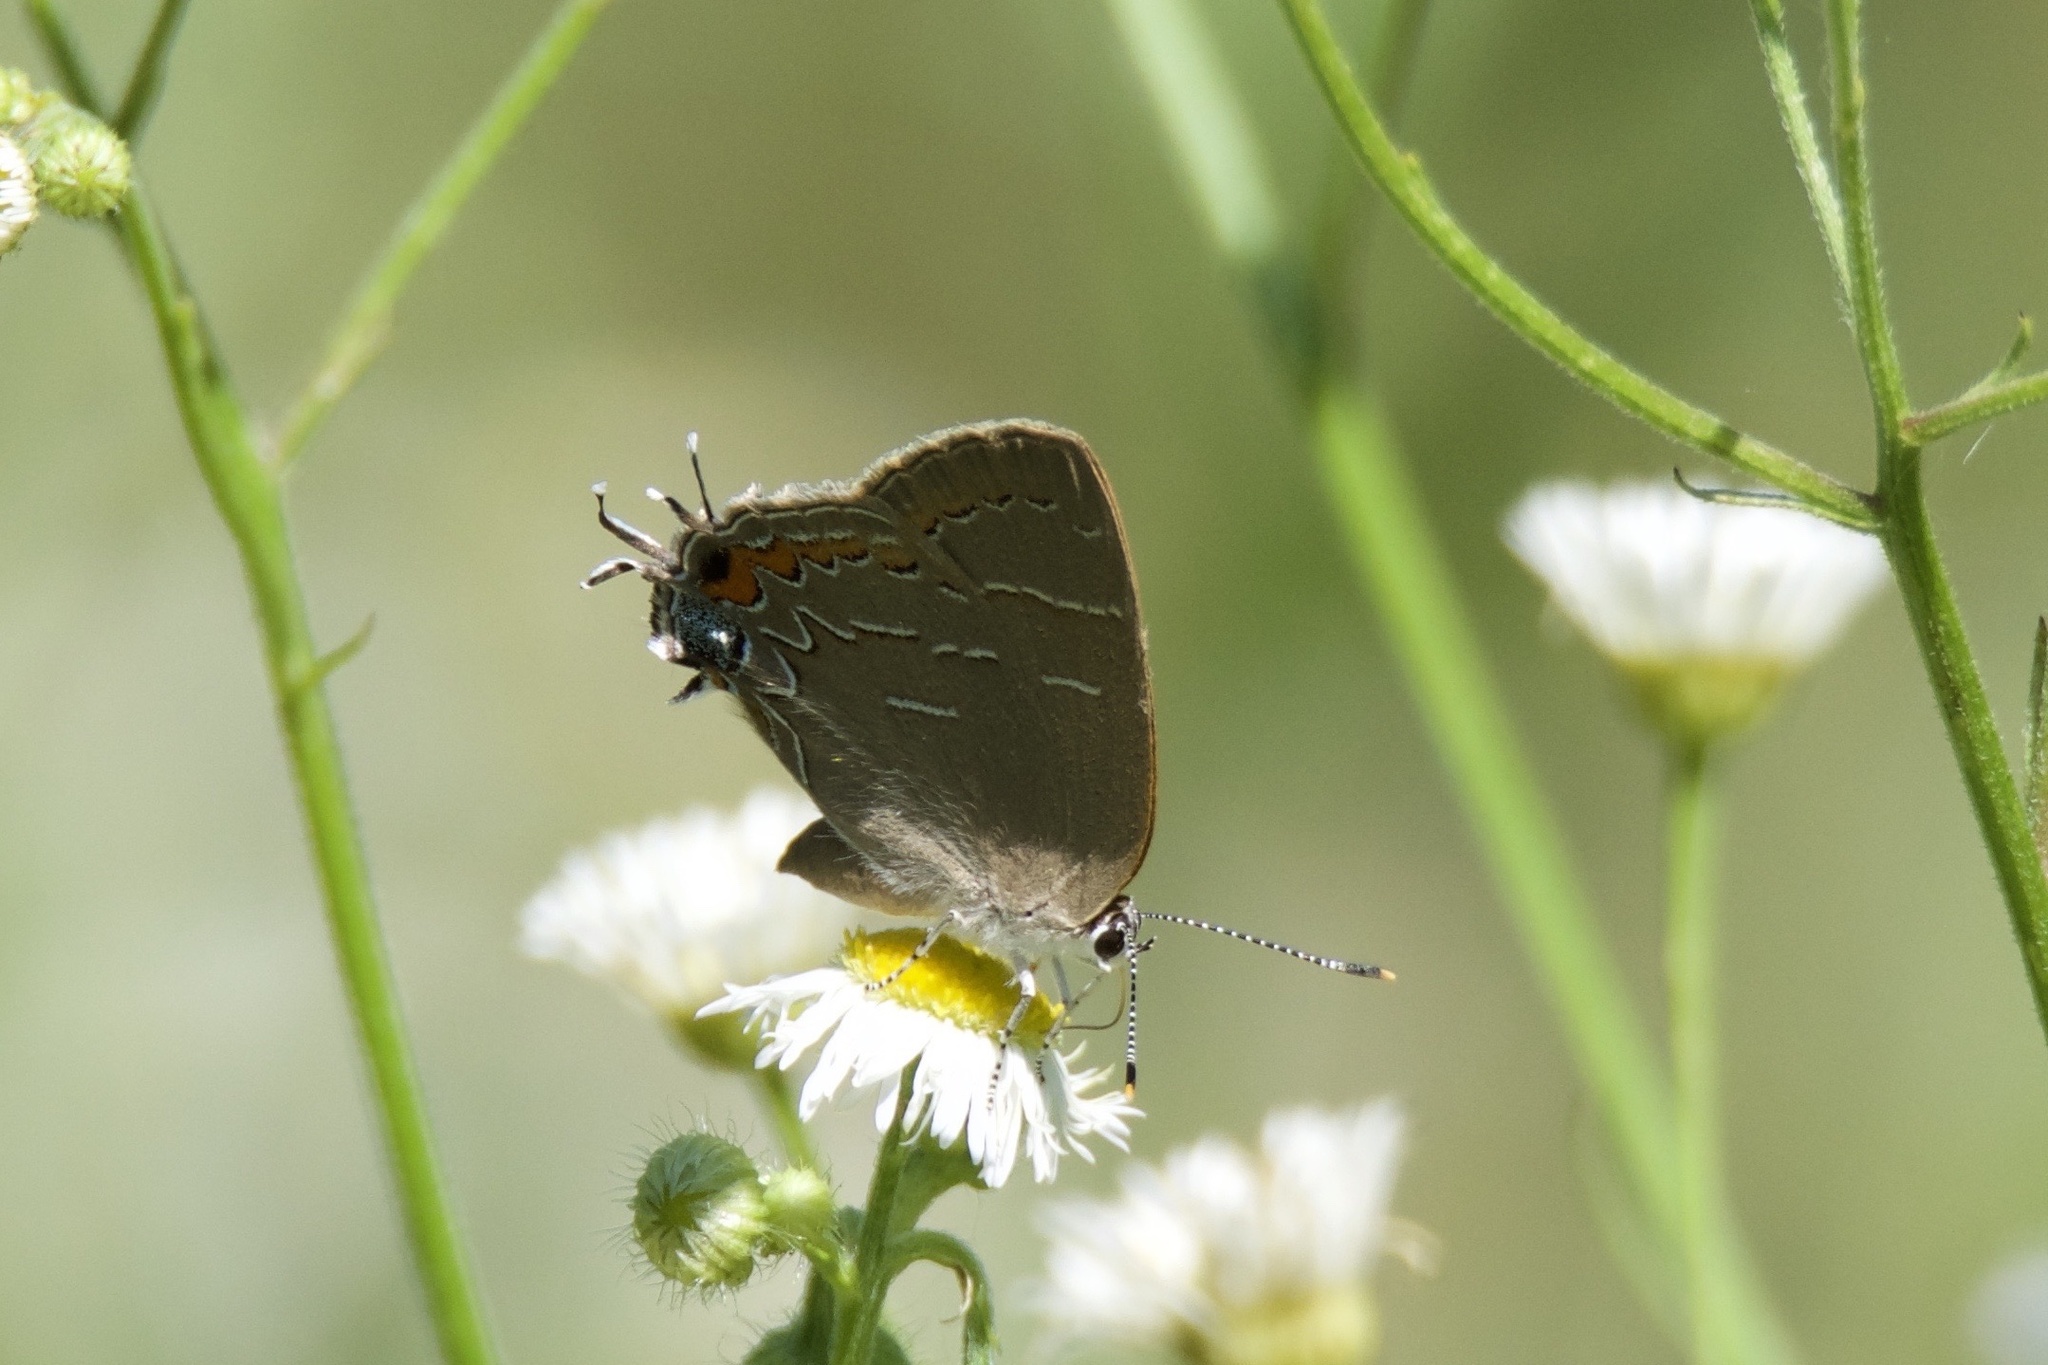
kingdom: Animalia
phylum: Arthropoda
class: Insecta
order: Lepidoptera
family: Lycaenidae
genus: Phaeostrymon
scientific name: Phaeostrymon alcestis
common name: Soapberry hairstreak
